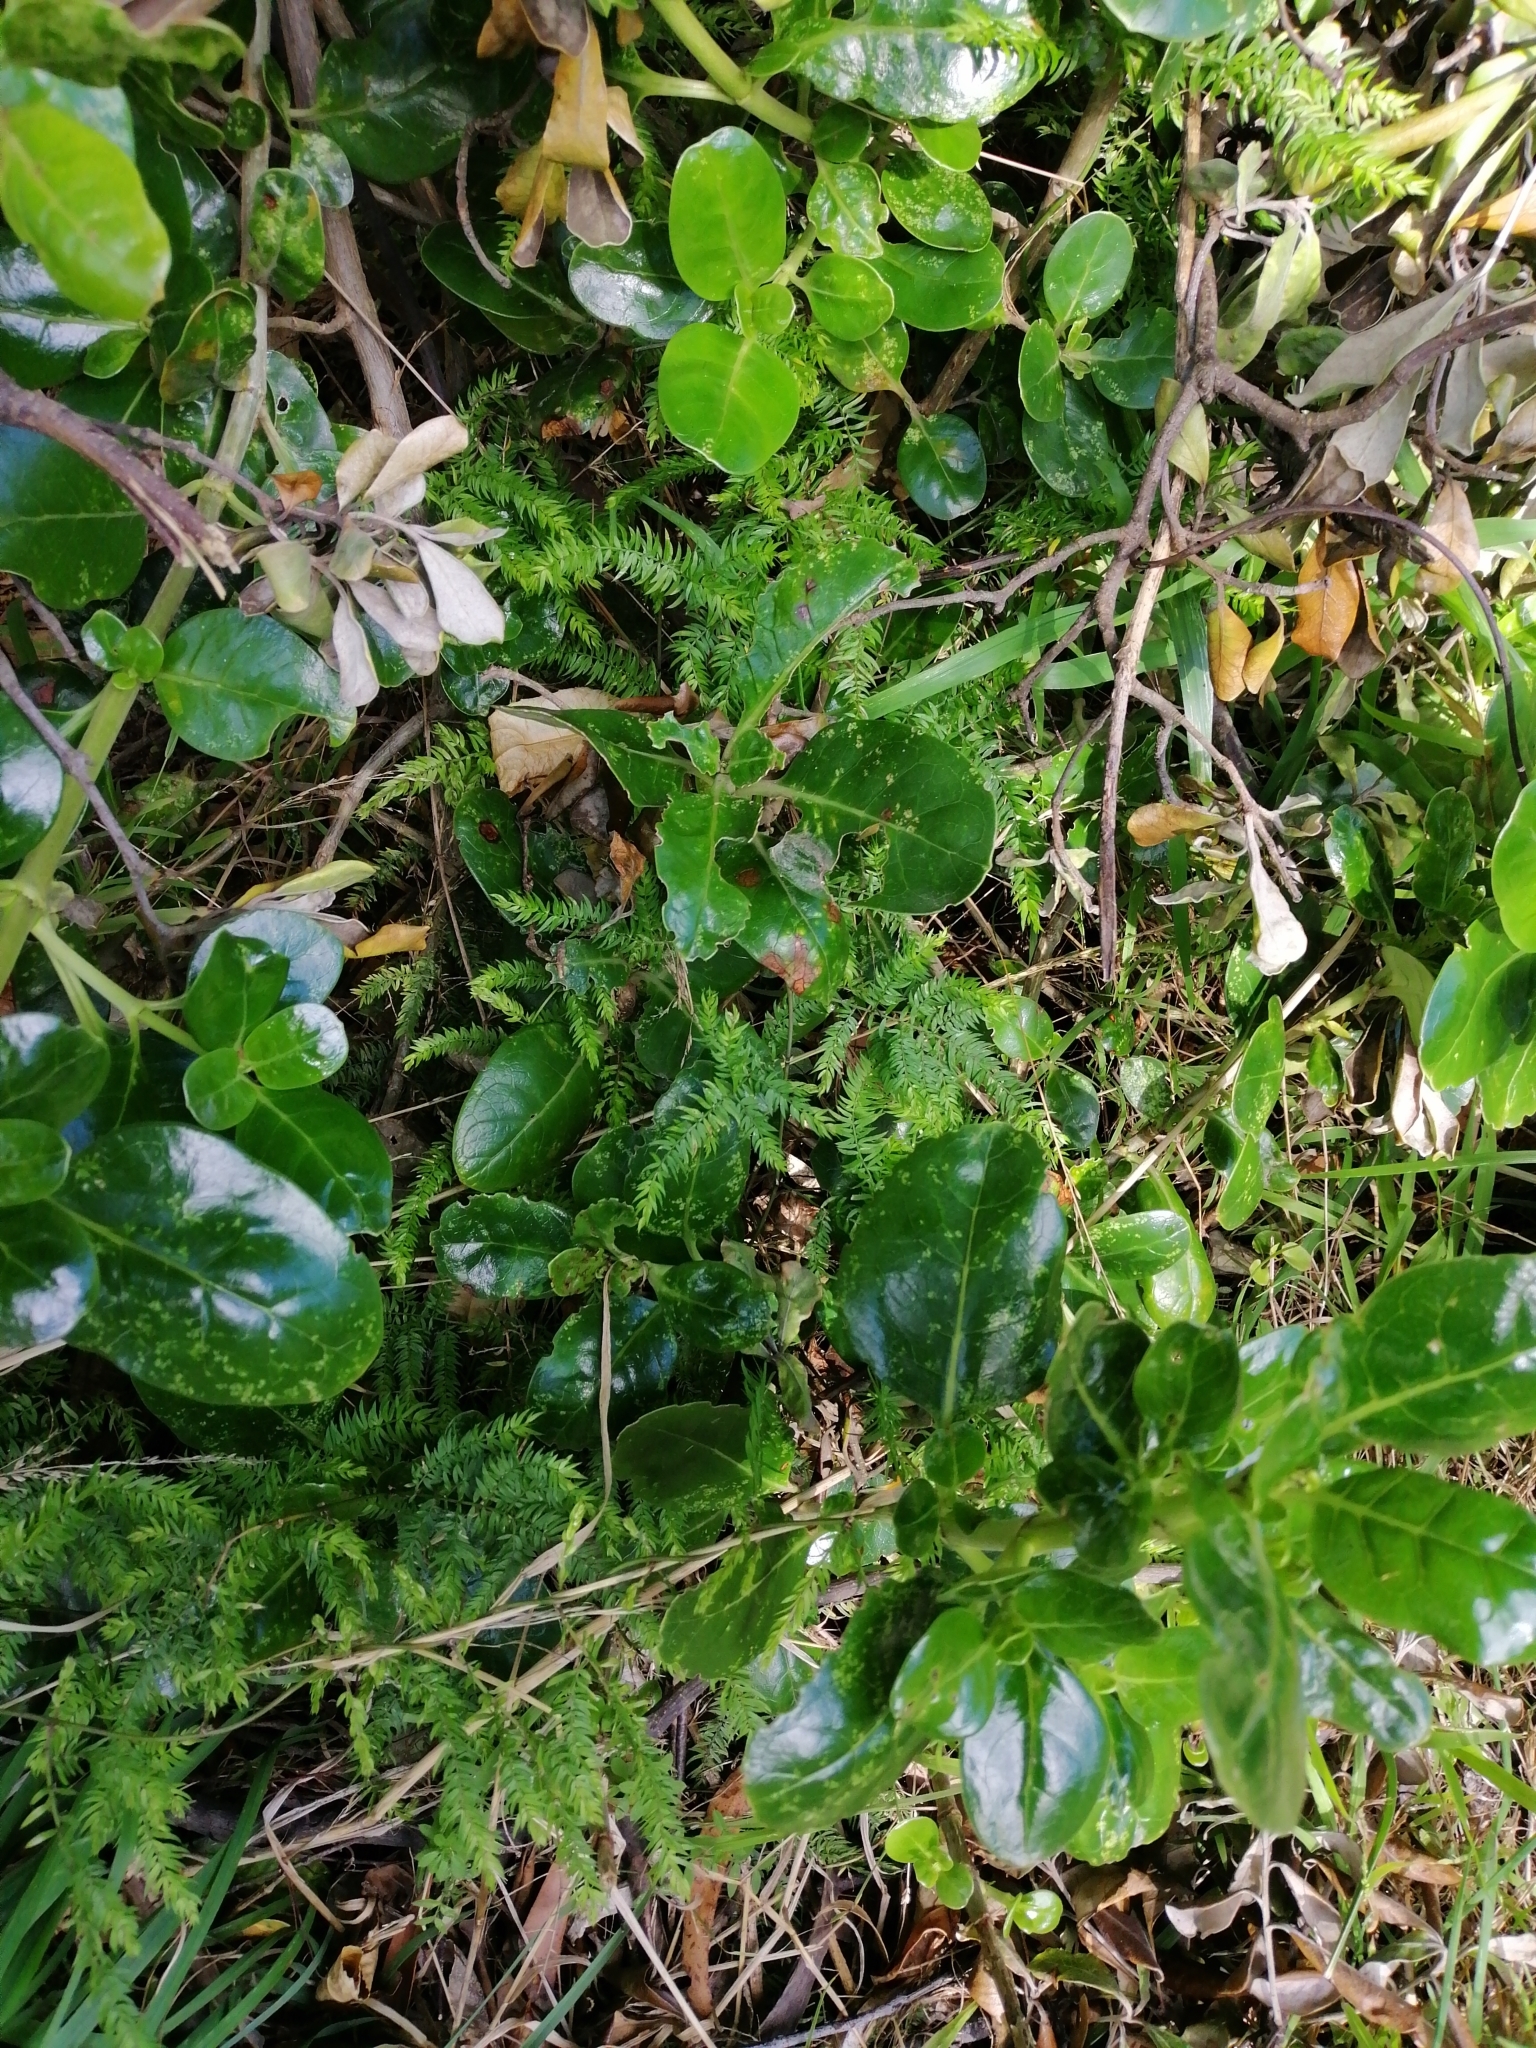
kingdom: Plantae
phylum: Tracheophyta
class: Liliopsida
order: Asparagales
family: Asparagaceae
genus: Asparagus
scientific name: Asparagus scandens
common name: Asparagus-fern
